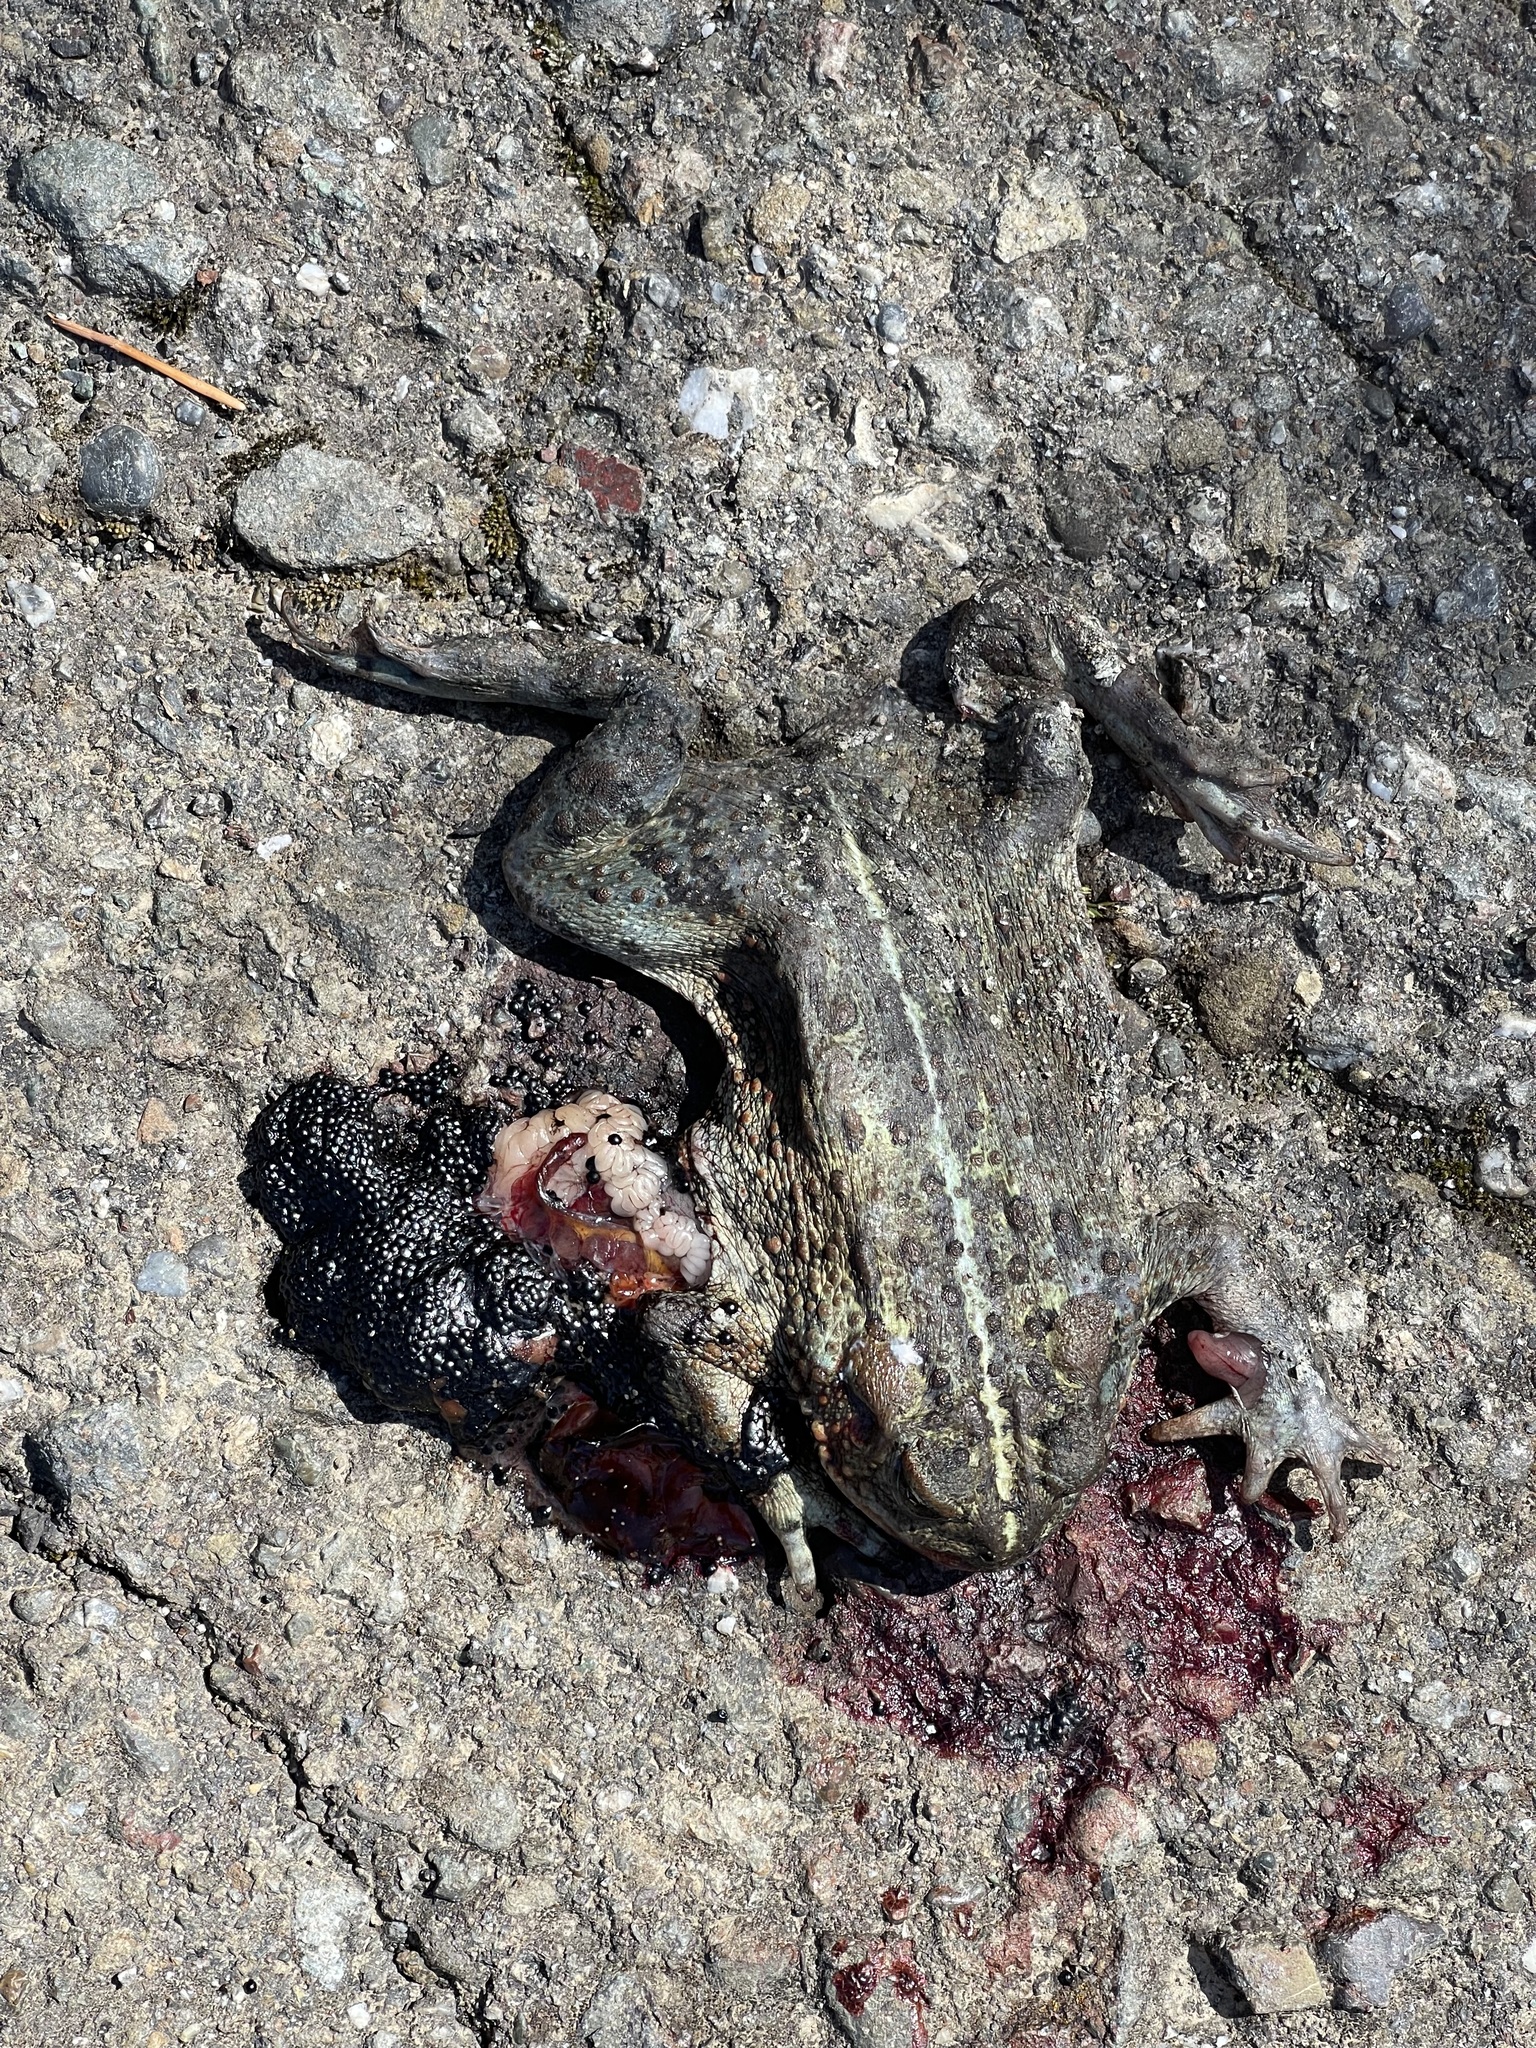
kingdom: Animalia
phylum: Chordata
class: Amphibia
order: Anura
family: Bufonidae
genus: Anaxyrus
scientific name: Anaxyrus boreas
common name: Western toad
